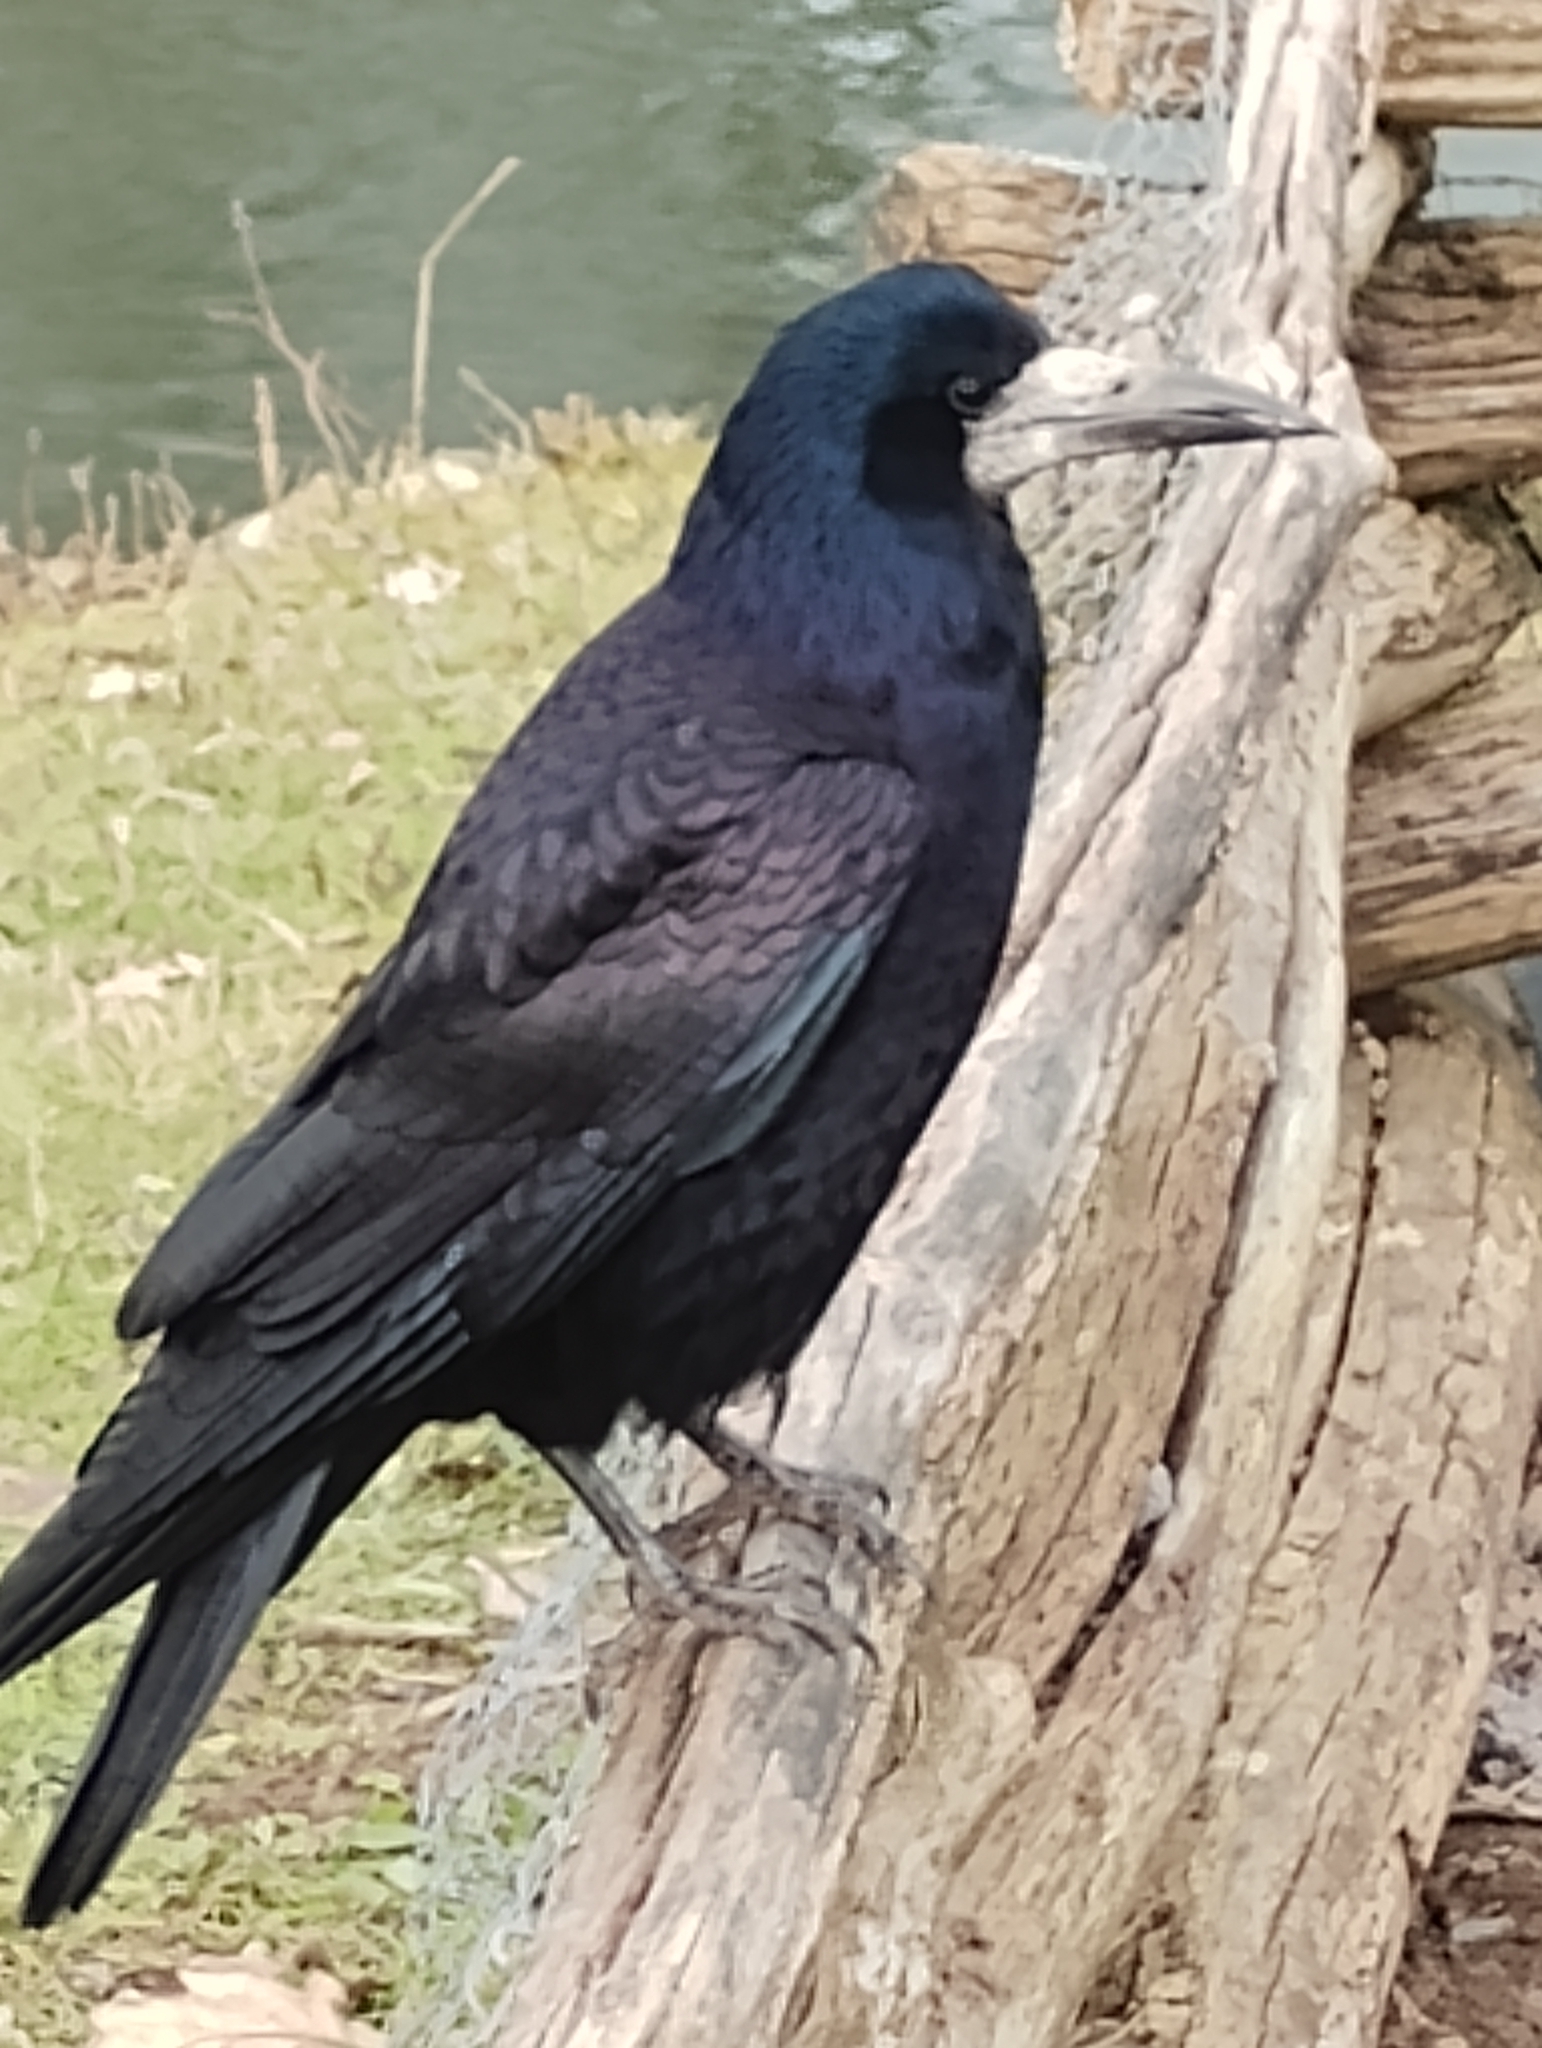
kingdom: Animalia
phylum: Chordata
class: Aves
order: Passeriformes
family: Corvidae
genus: Corvus
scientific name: Corvus frugilegus
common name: Rook
